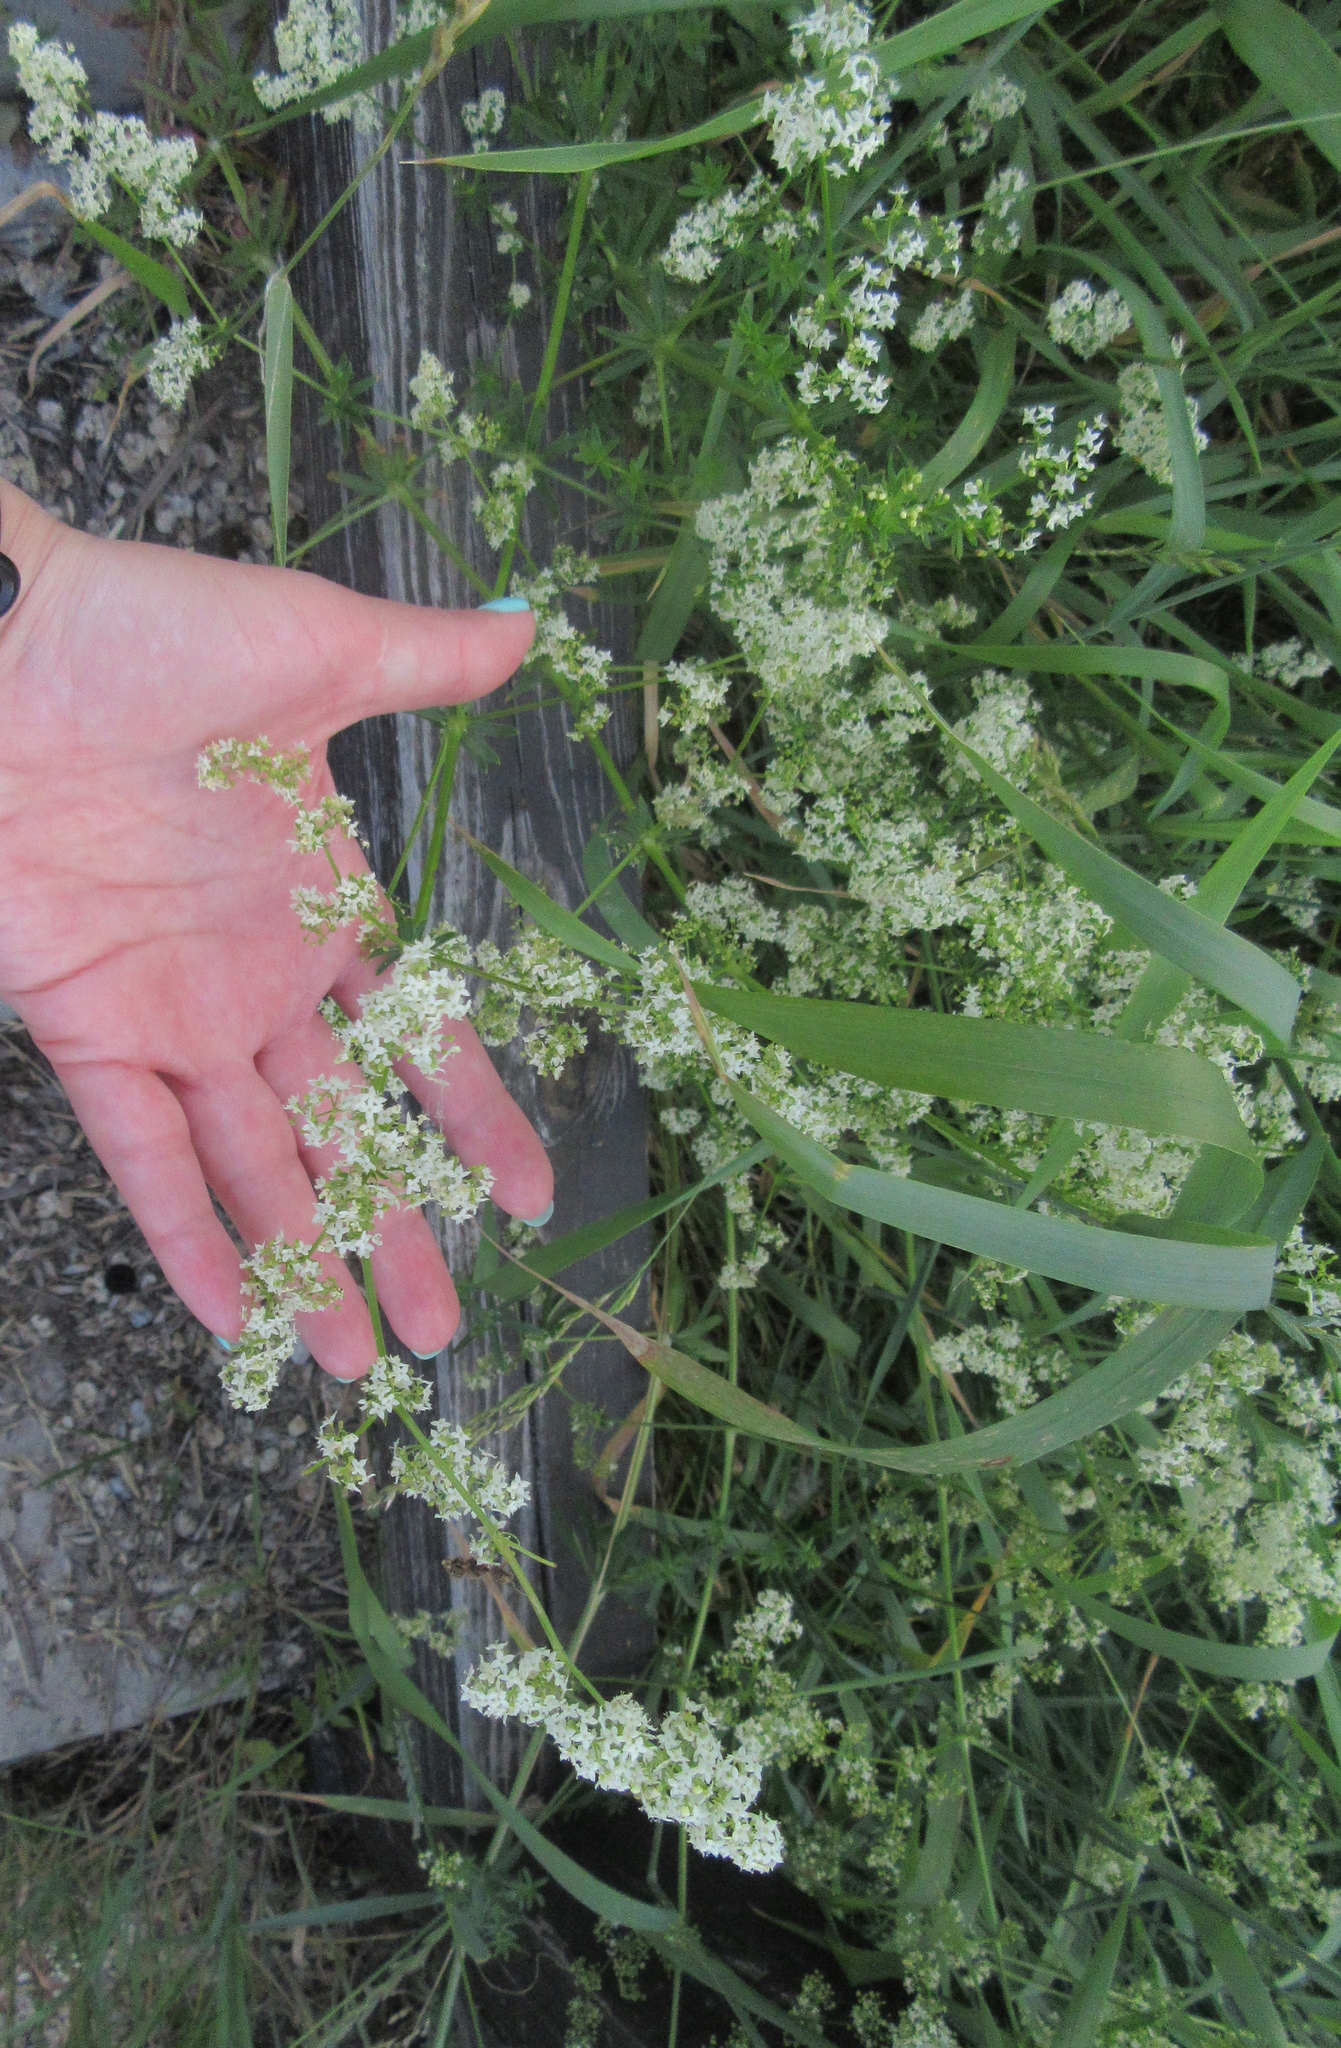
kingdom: Plantae
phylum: Tracheophyta
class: Magnoliopsida
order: Gentianales
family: Rubiaceae
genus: Galium
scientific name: Galium mollugo
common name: Hedge bedstraw
